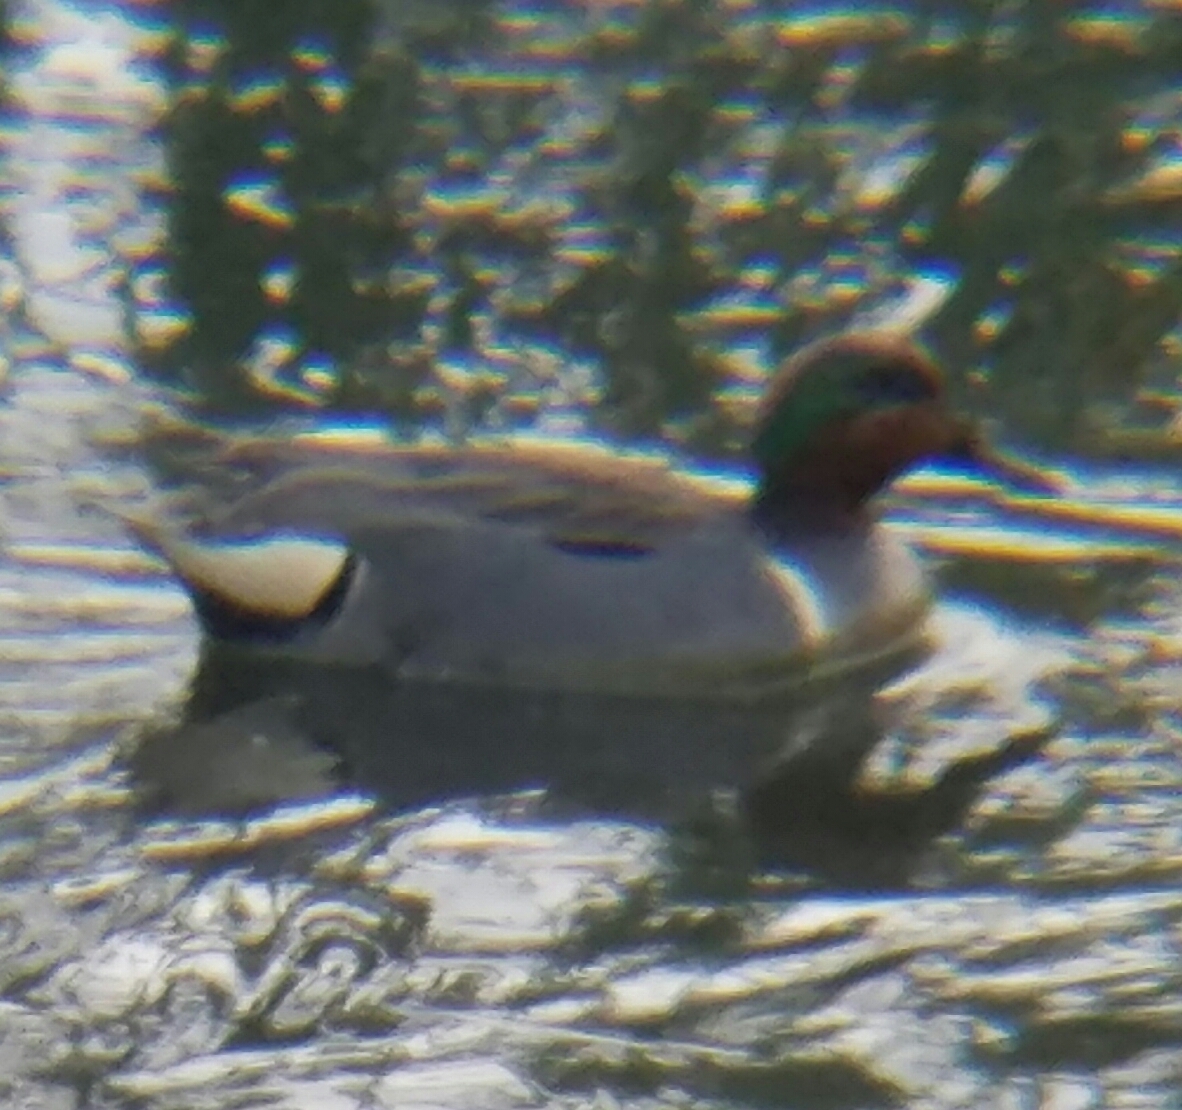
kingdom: Animalia
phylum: Chordata
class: Aves
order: Anseriformes
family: Anatidae
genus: Anas
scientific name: Anas crecca
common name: Eurasian teal
